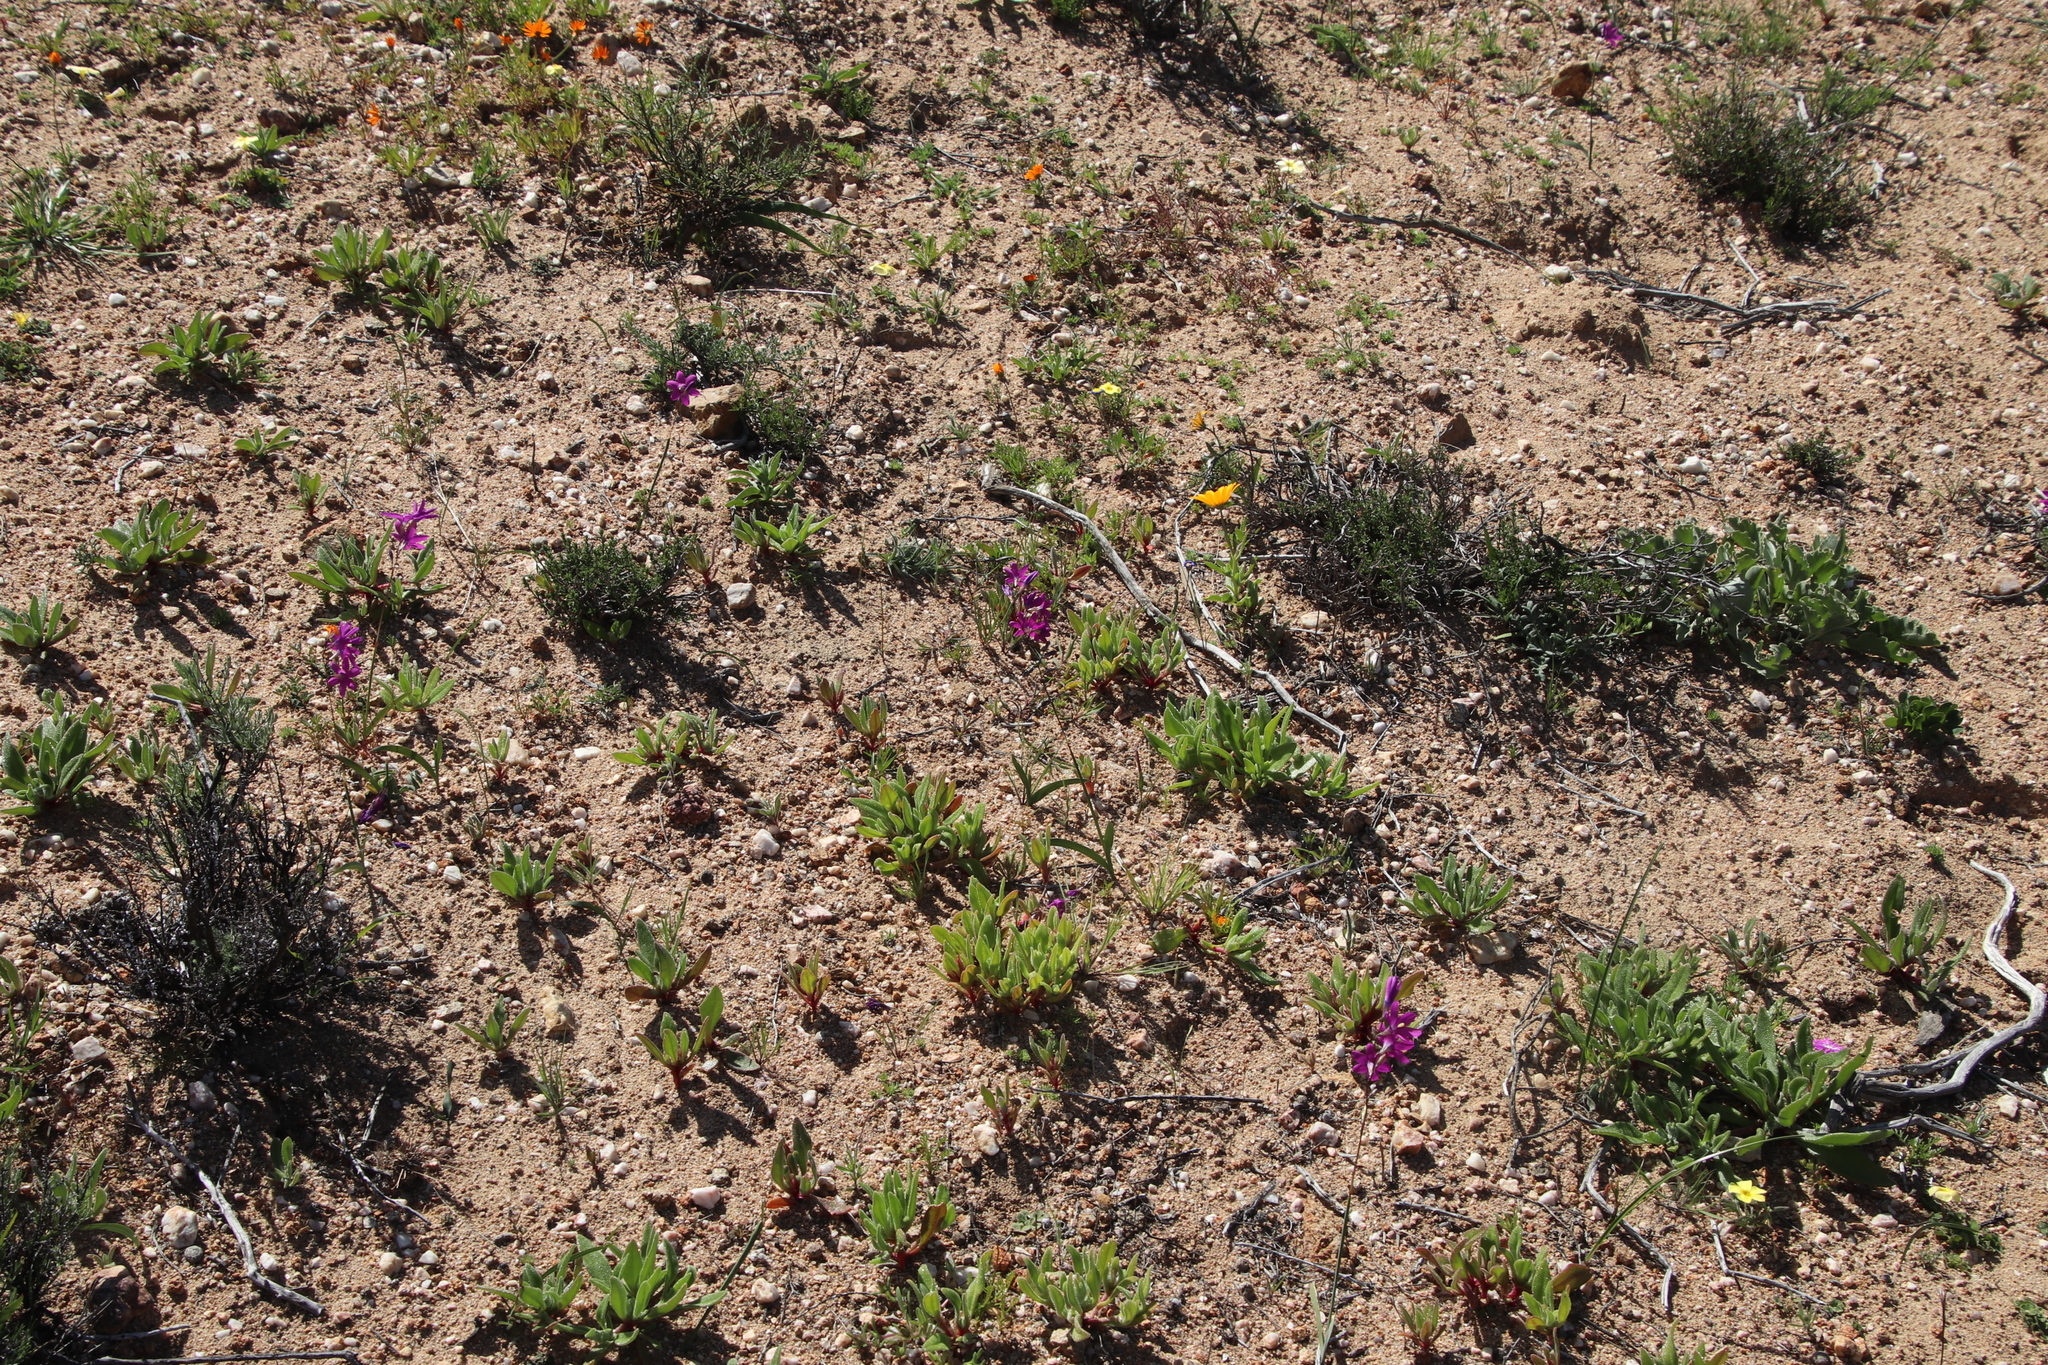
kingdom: Plantae
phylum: Tracheophyta
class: Liliopsida
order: Asparagales
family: Iridaceae
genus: Ixia
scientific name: Ixia ramulosa
